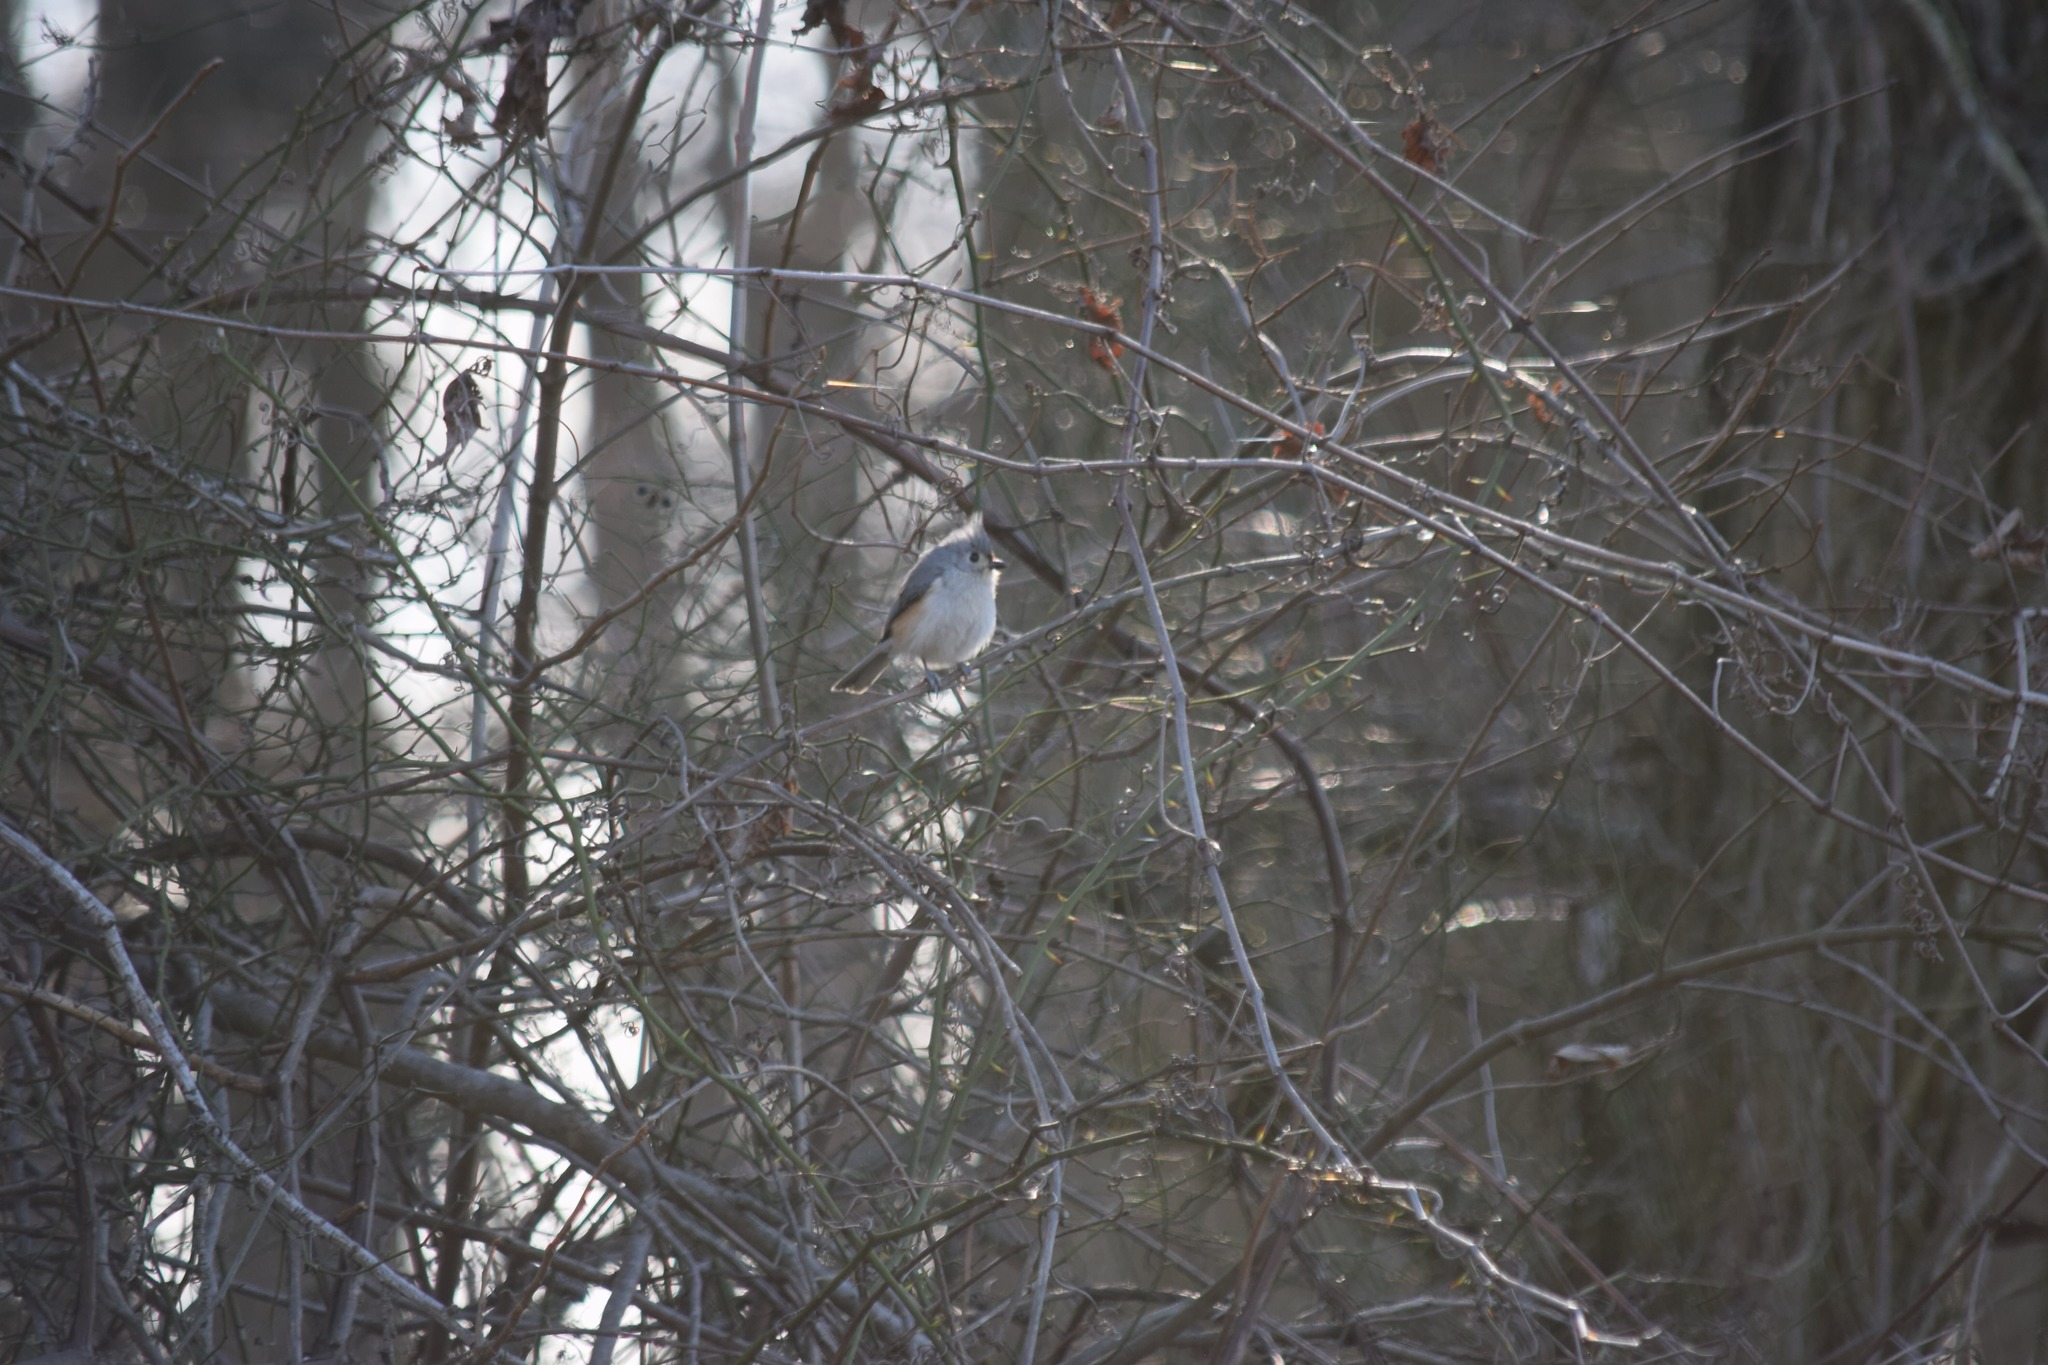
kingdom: Animalia
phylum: Chordata
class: Aves
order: Passeriformes
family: Paridae
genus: Baeolophus
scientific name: Baeolophus bicolor
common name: Tufted titmouse
